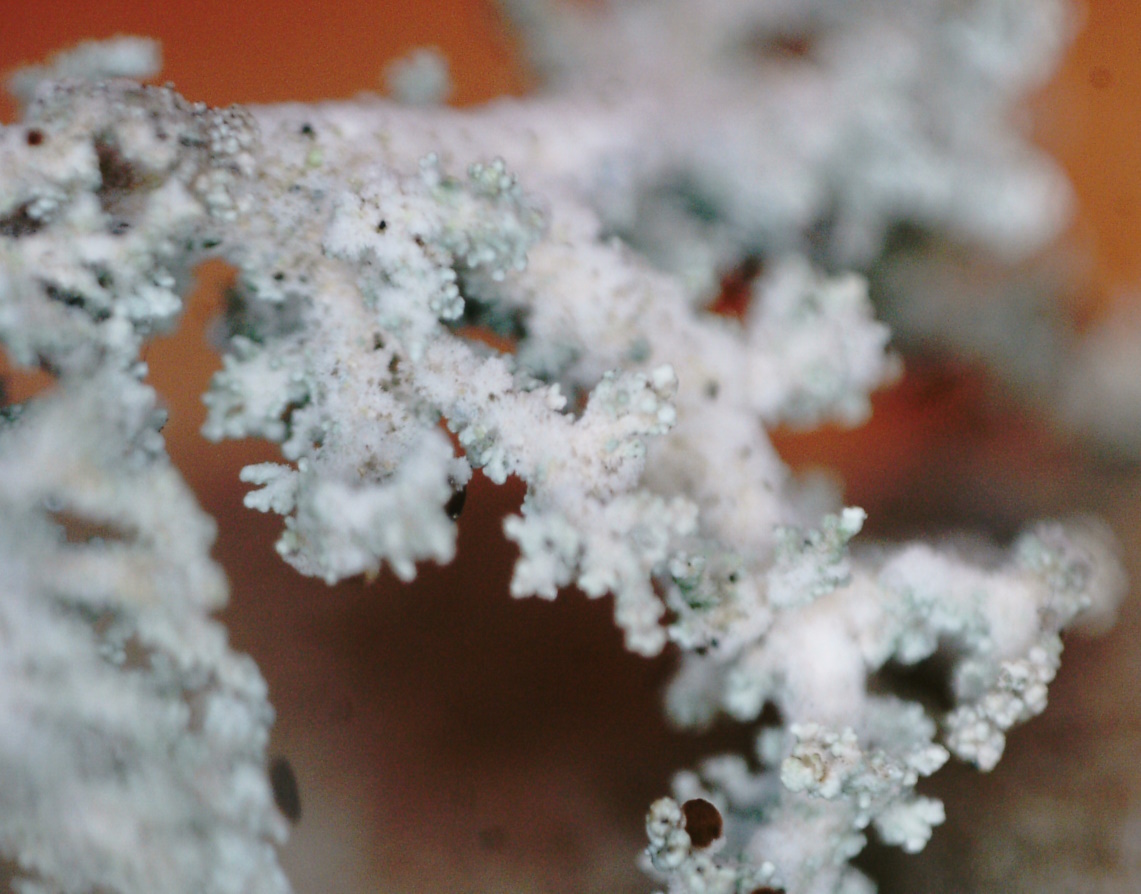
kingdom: Fungi
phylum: Ascomycota
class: Lecanoromycetes
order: Lecanorales
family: Stereocaulaceae
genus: Stereocaulon
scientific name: Stereocaulon tomentosum
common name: Woolly foam
